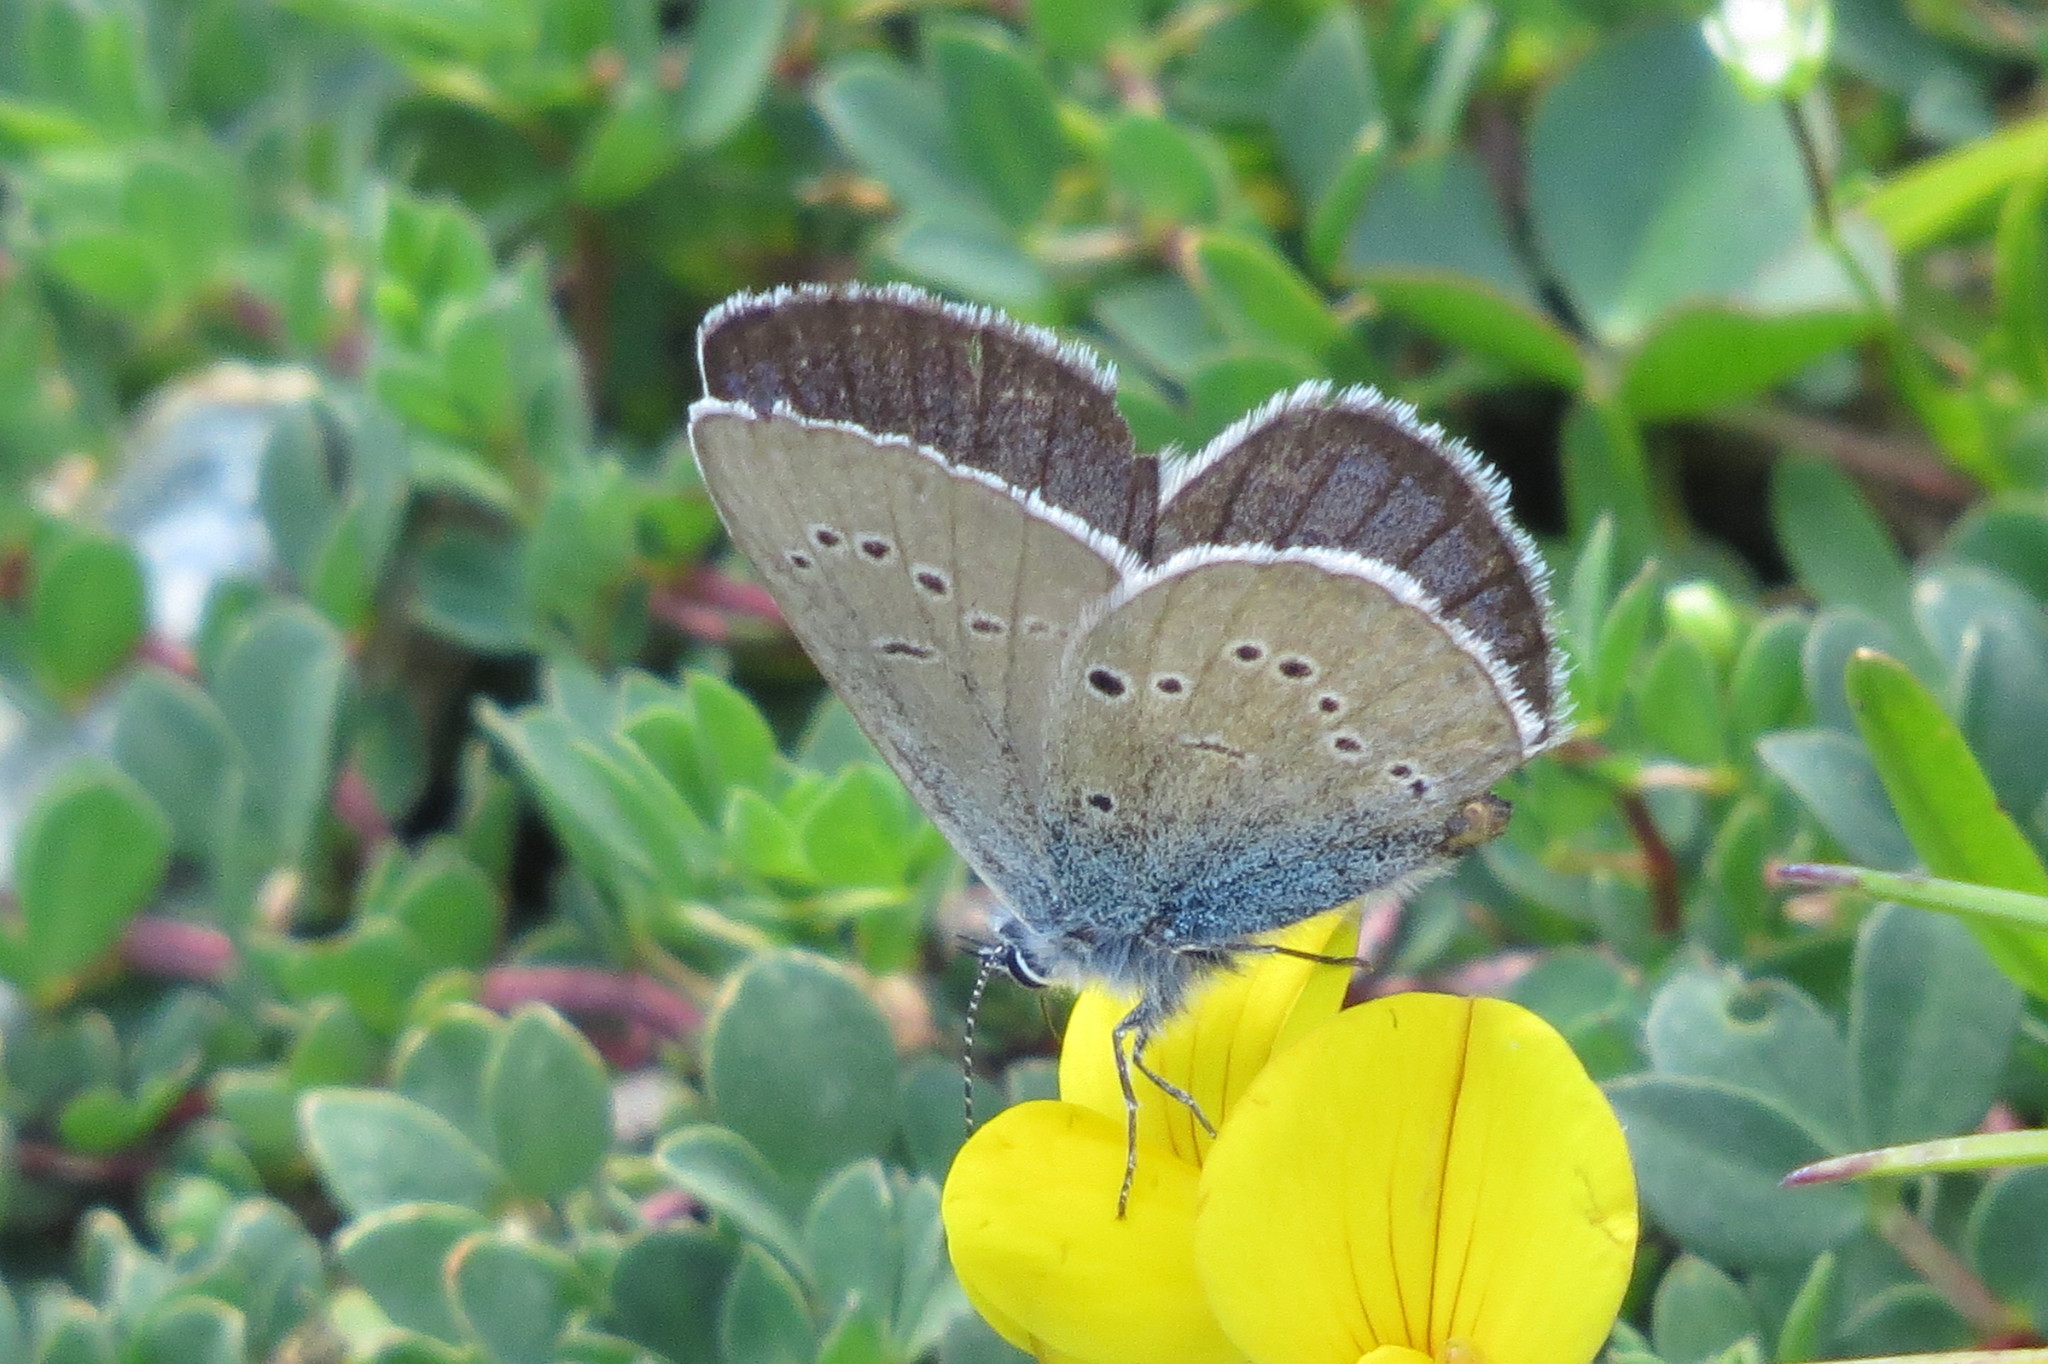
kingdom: Animalia
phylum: Arthropoda
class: Insecta
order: Lepidoptera
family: Lycaenidae
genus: Cyaniris
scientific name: Cyaniris semiargus
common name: Mazarine blue
